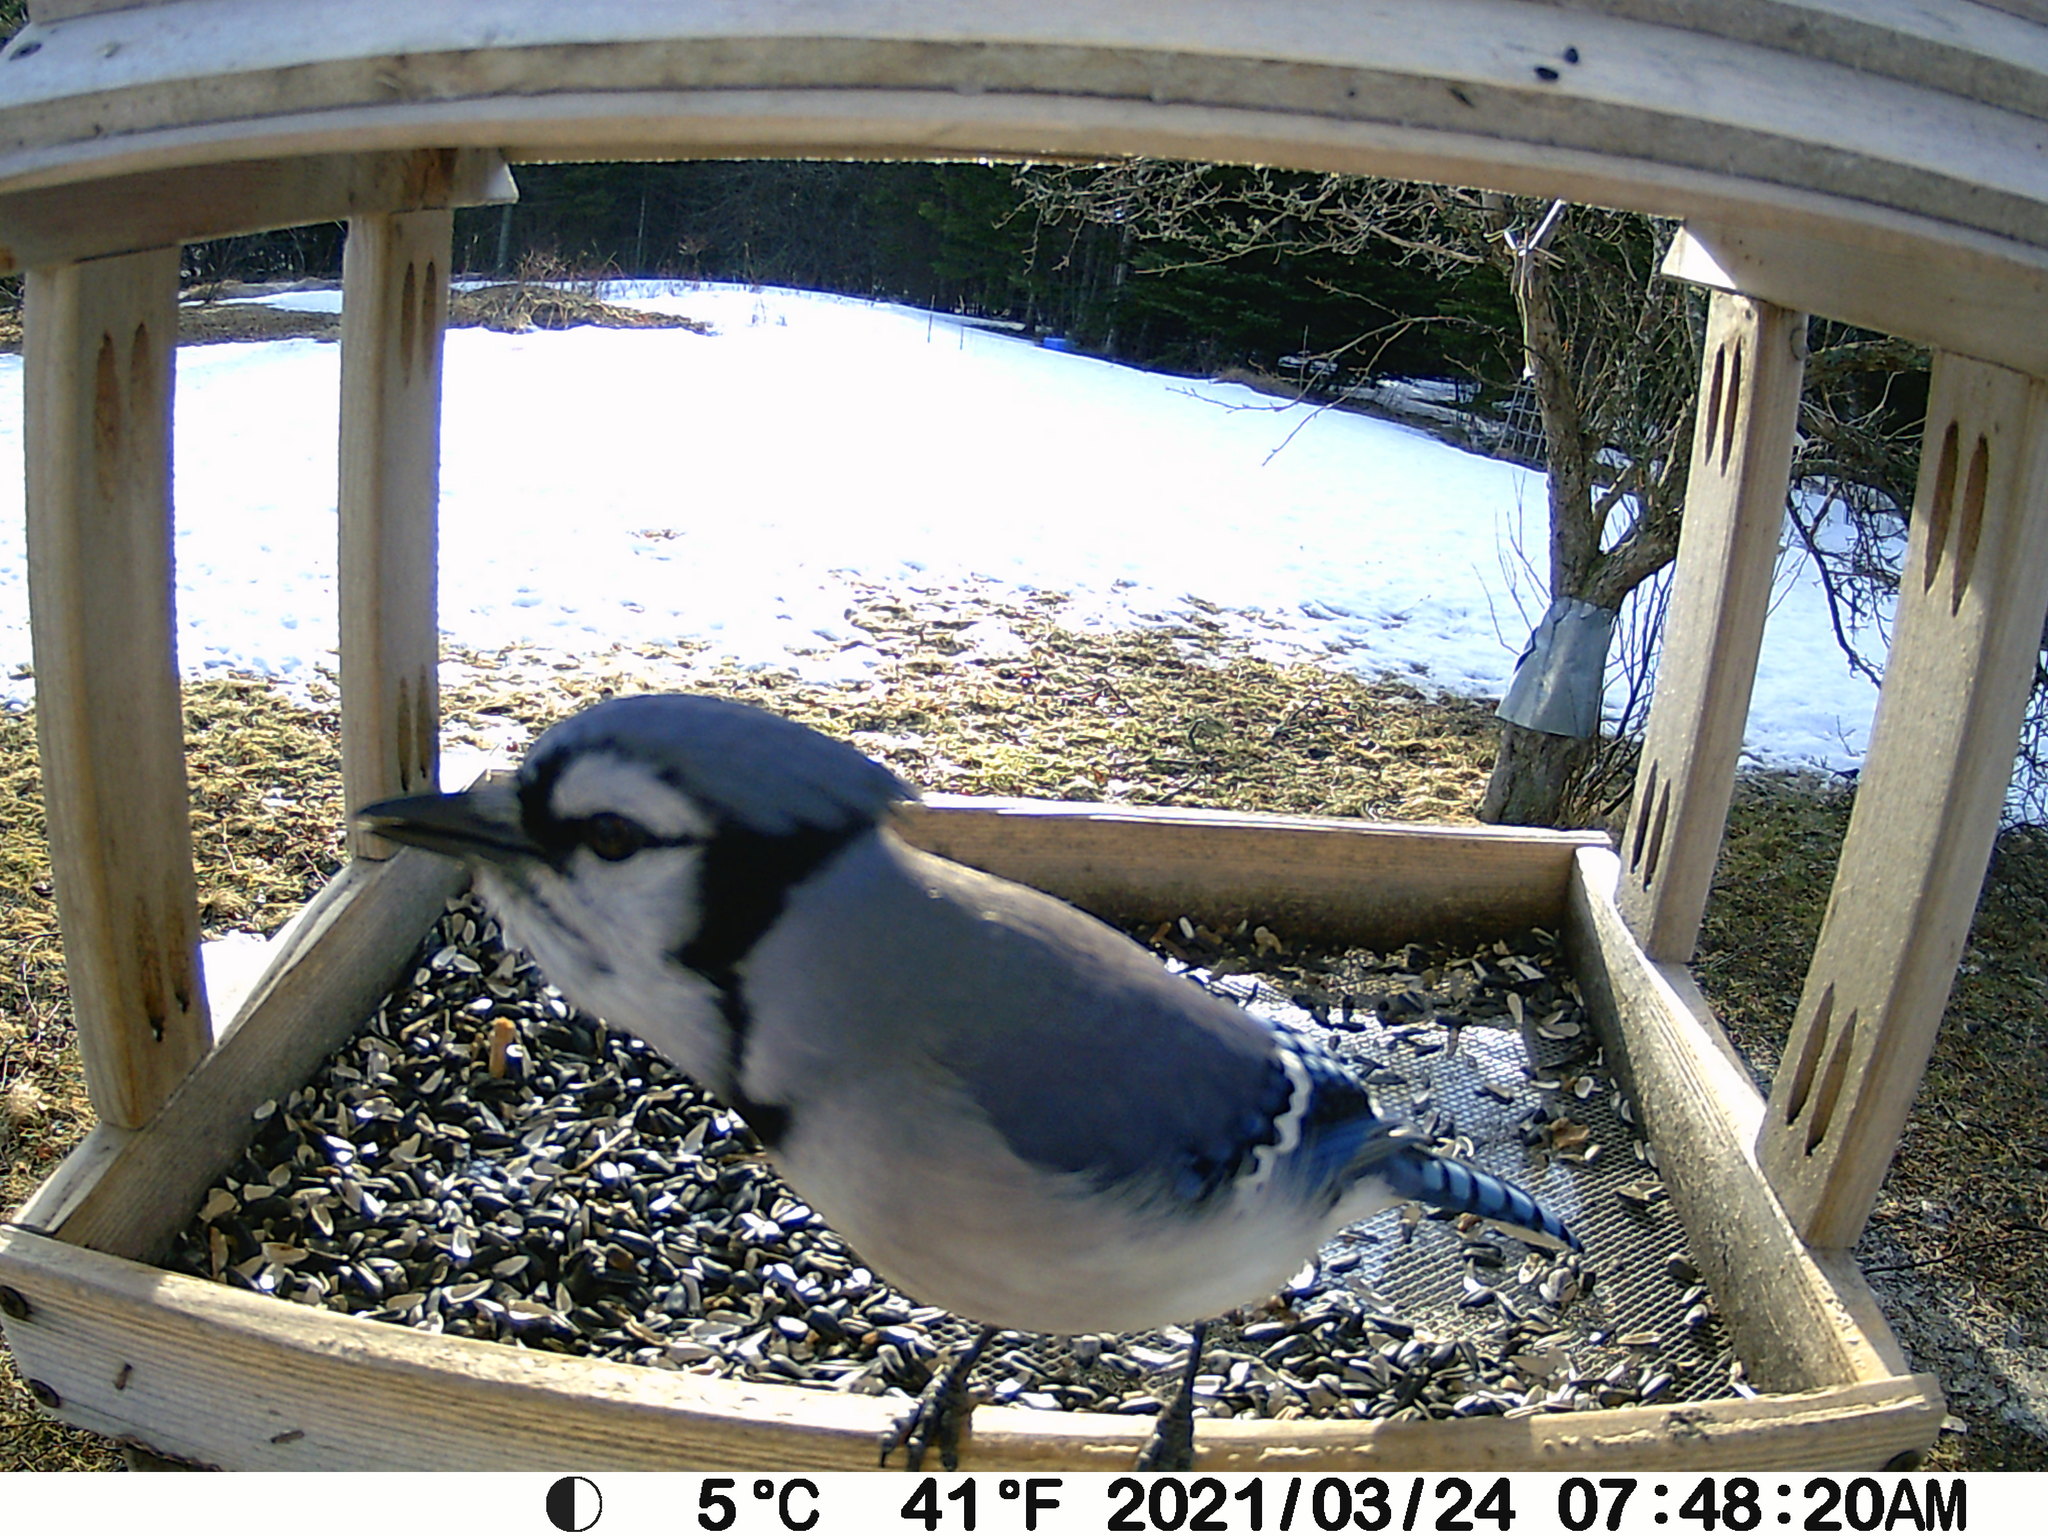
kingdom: Animalia
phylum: Chordata
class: Aves
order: Passeriformes
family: Corvidae
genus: Cyanocitta
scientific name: Cyanocitta cristata
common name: Blue jay
